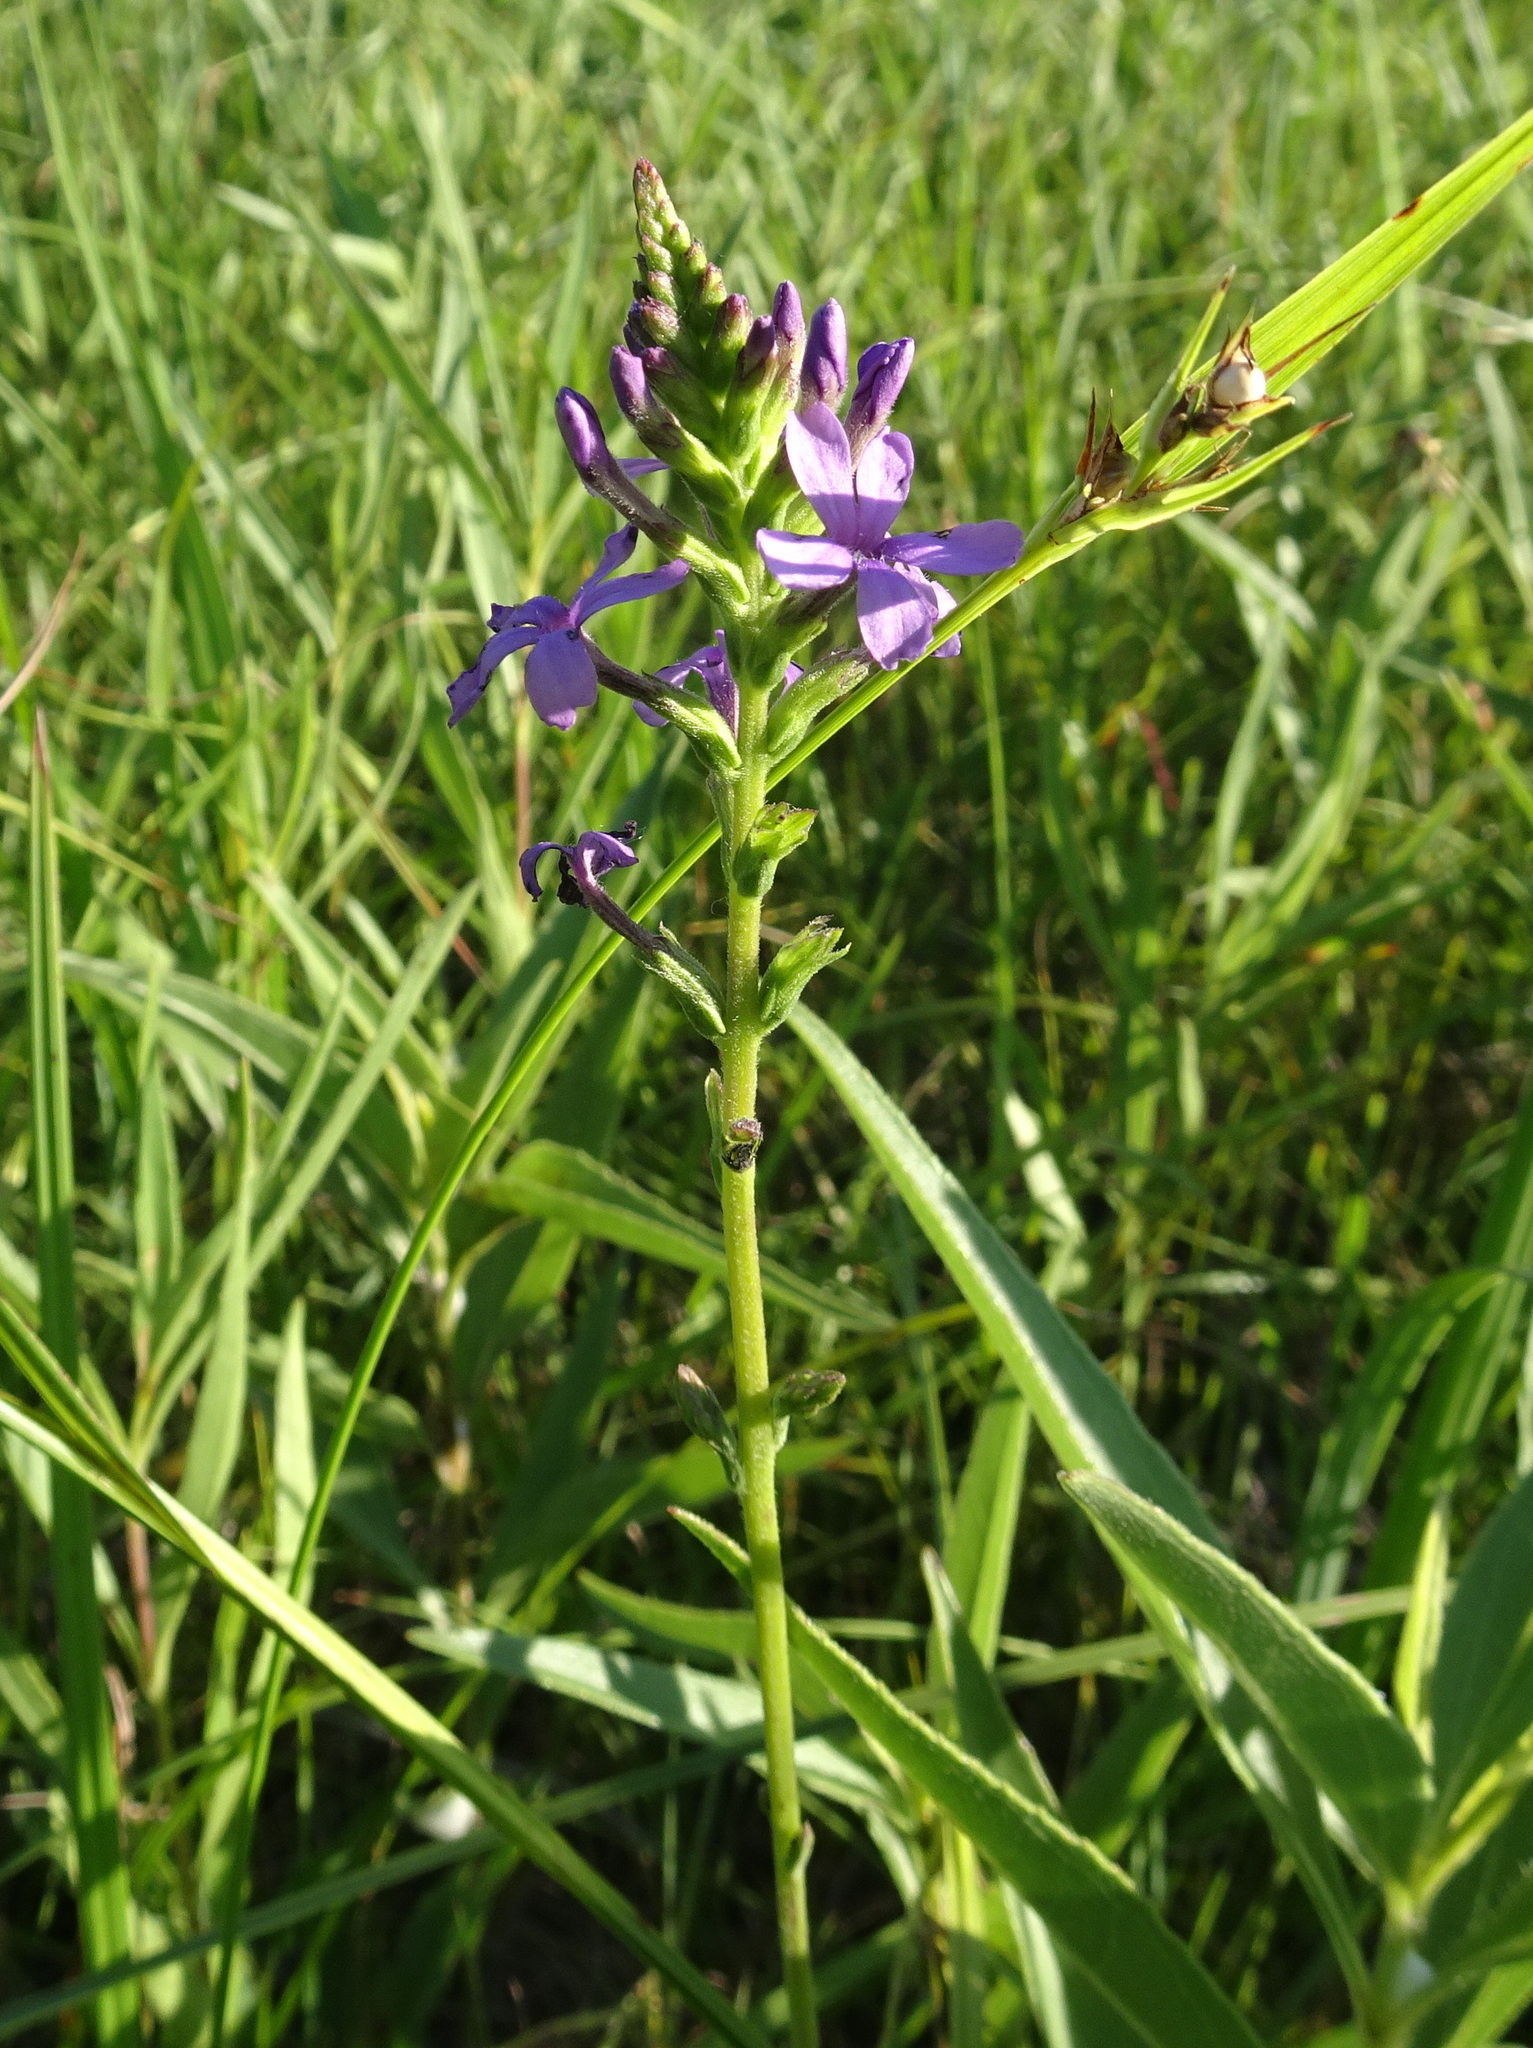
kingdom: Plantae
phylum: Tracheophyta
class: Magnoliopsida
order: Lamiales
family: Orobanchaceae
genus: Buchnera
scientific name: Buchnera americana
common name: American bluehearts
